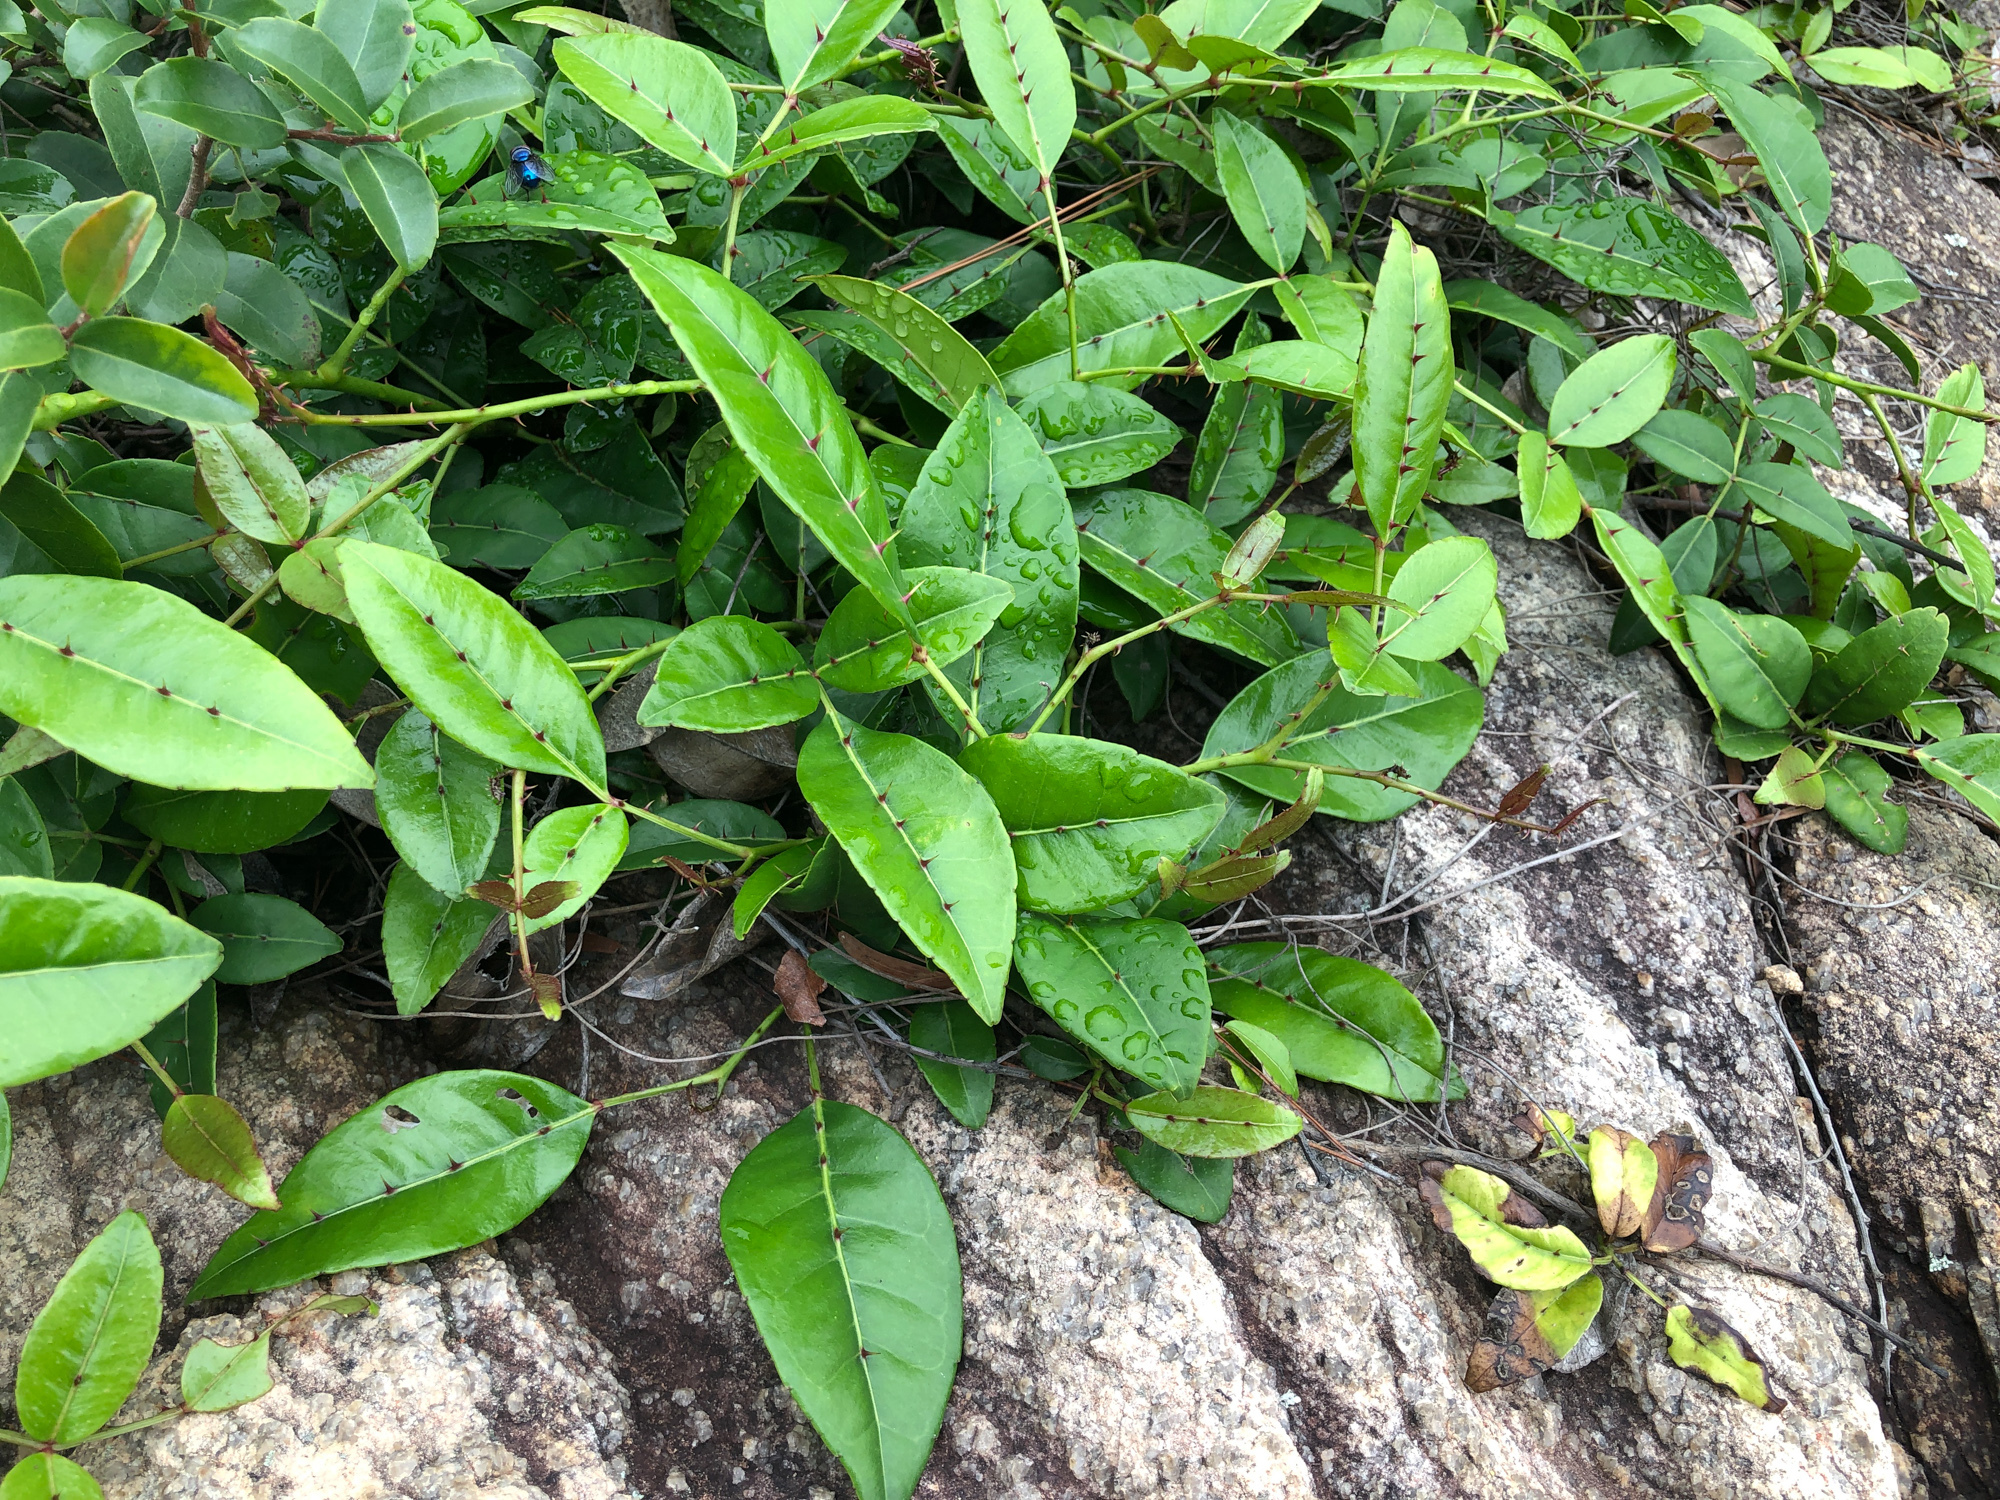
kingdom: Plantae
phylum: Tracheophyta
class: Magnoliopsida
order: Sapindales
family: Rutaceae
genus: Zanthoxylum
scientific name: Zanthoxylum nitidum
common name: Shiny-leaf prickly-ash
